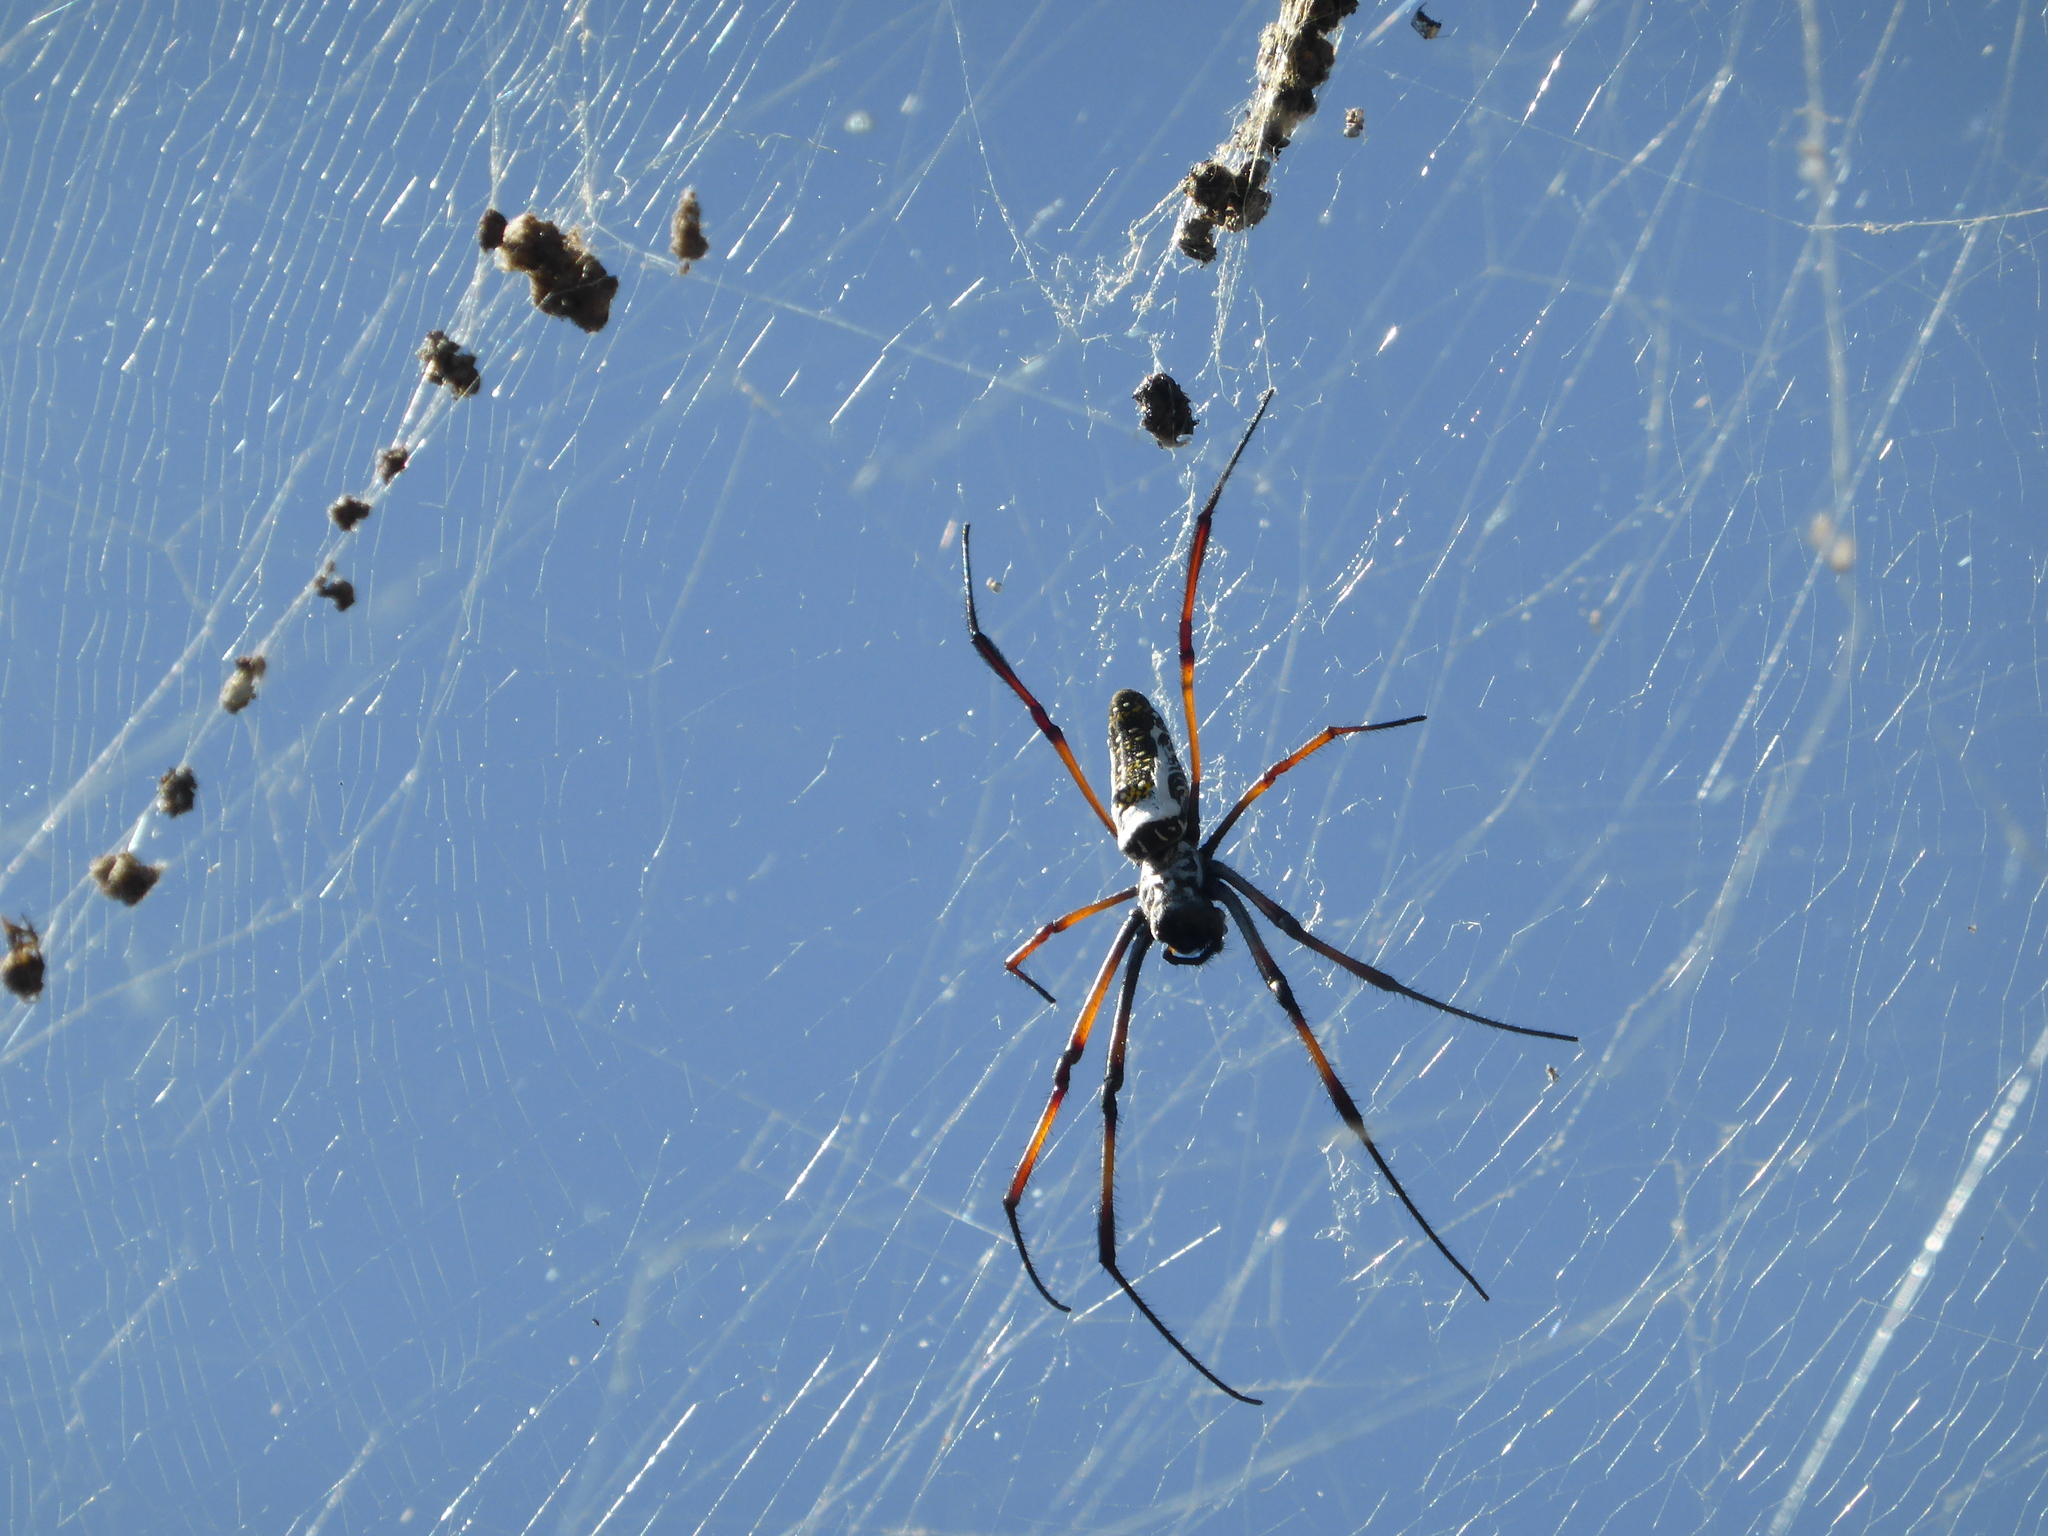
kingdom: Animalia
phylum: Arthropoda
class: Arachnida
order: Araneae
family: Araneidae
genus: Trichonephila
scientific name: Trichonephila inaurata
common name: Red-legged golden orb weaver
